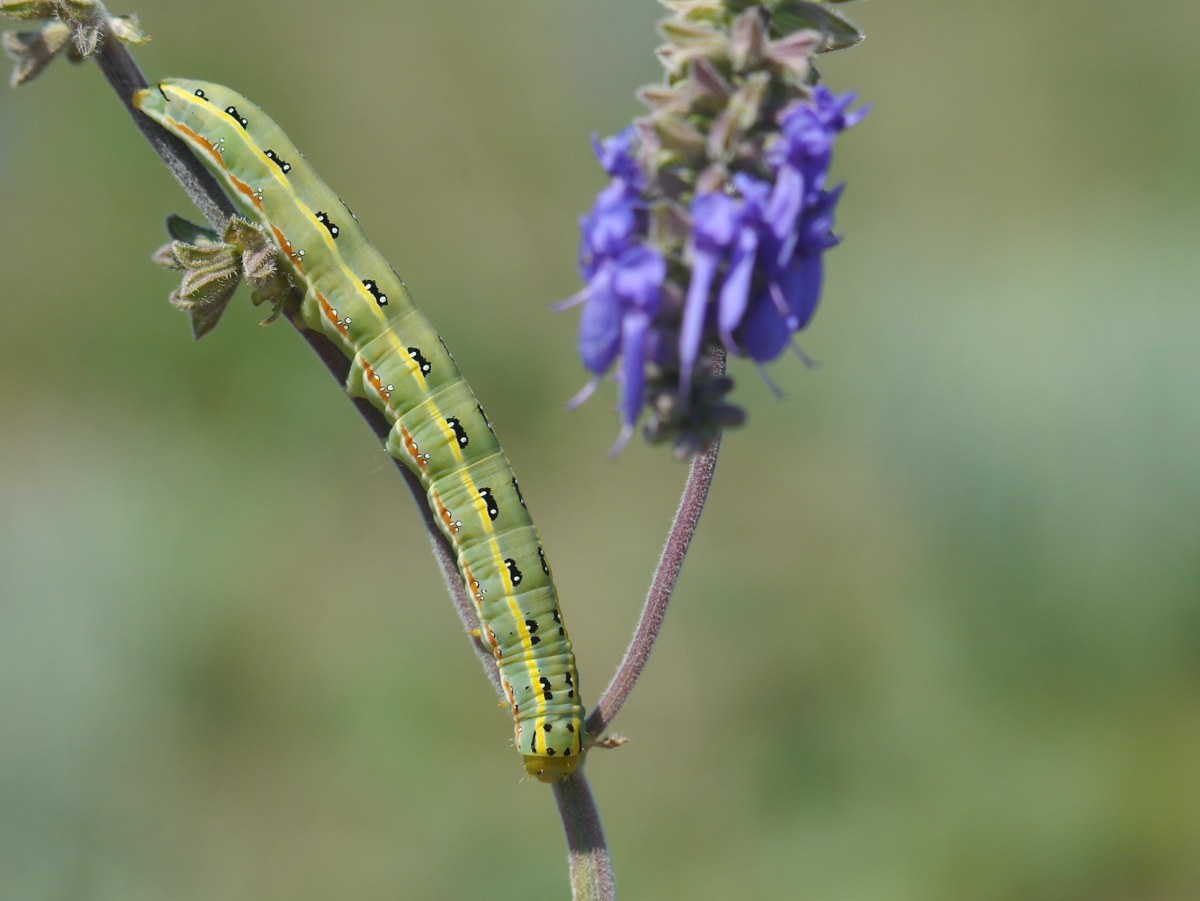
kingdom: Animalia
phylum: Arthropoda
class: Insecta
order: Lepidoptera
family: Noctuidae
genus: Xylena
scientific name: Xylena exsoleta
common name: Sword-grass
